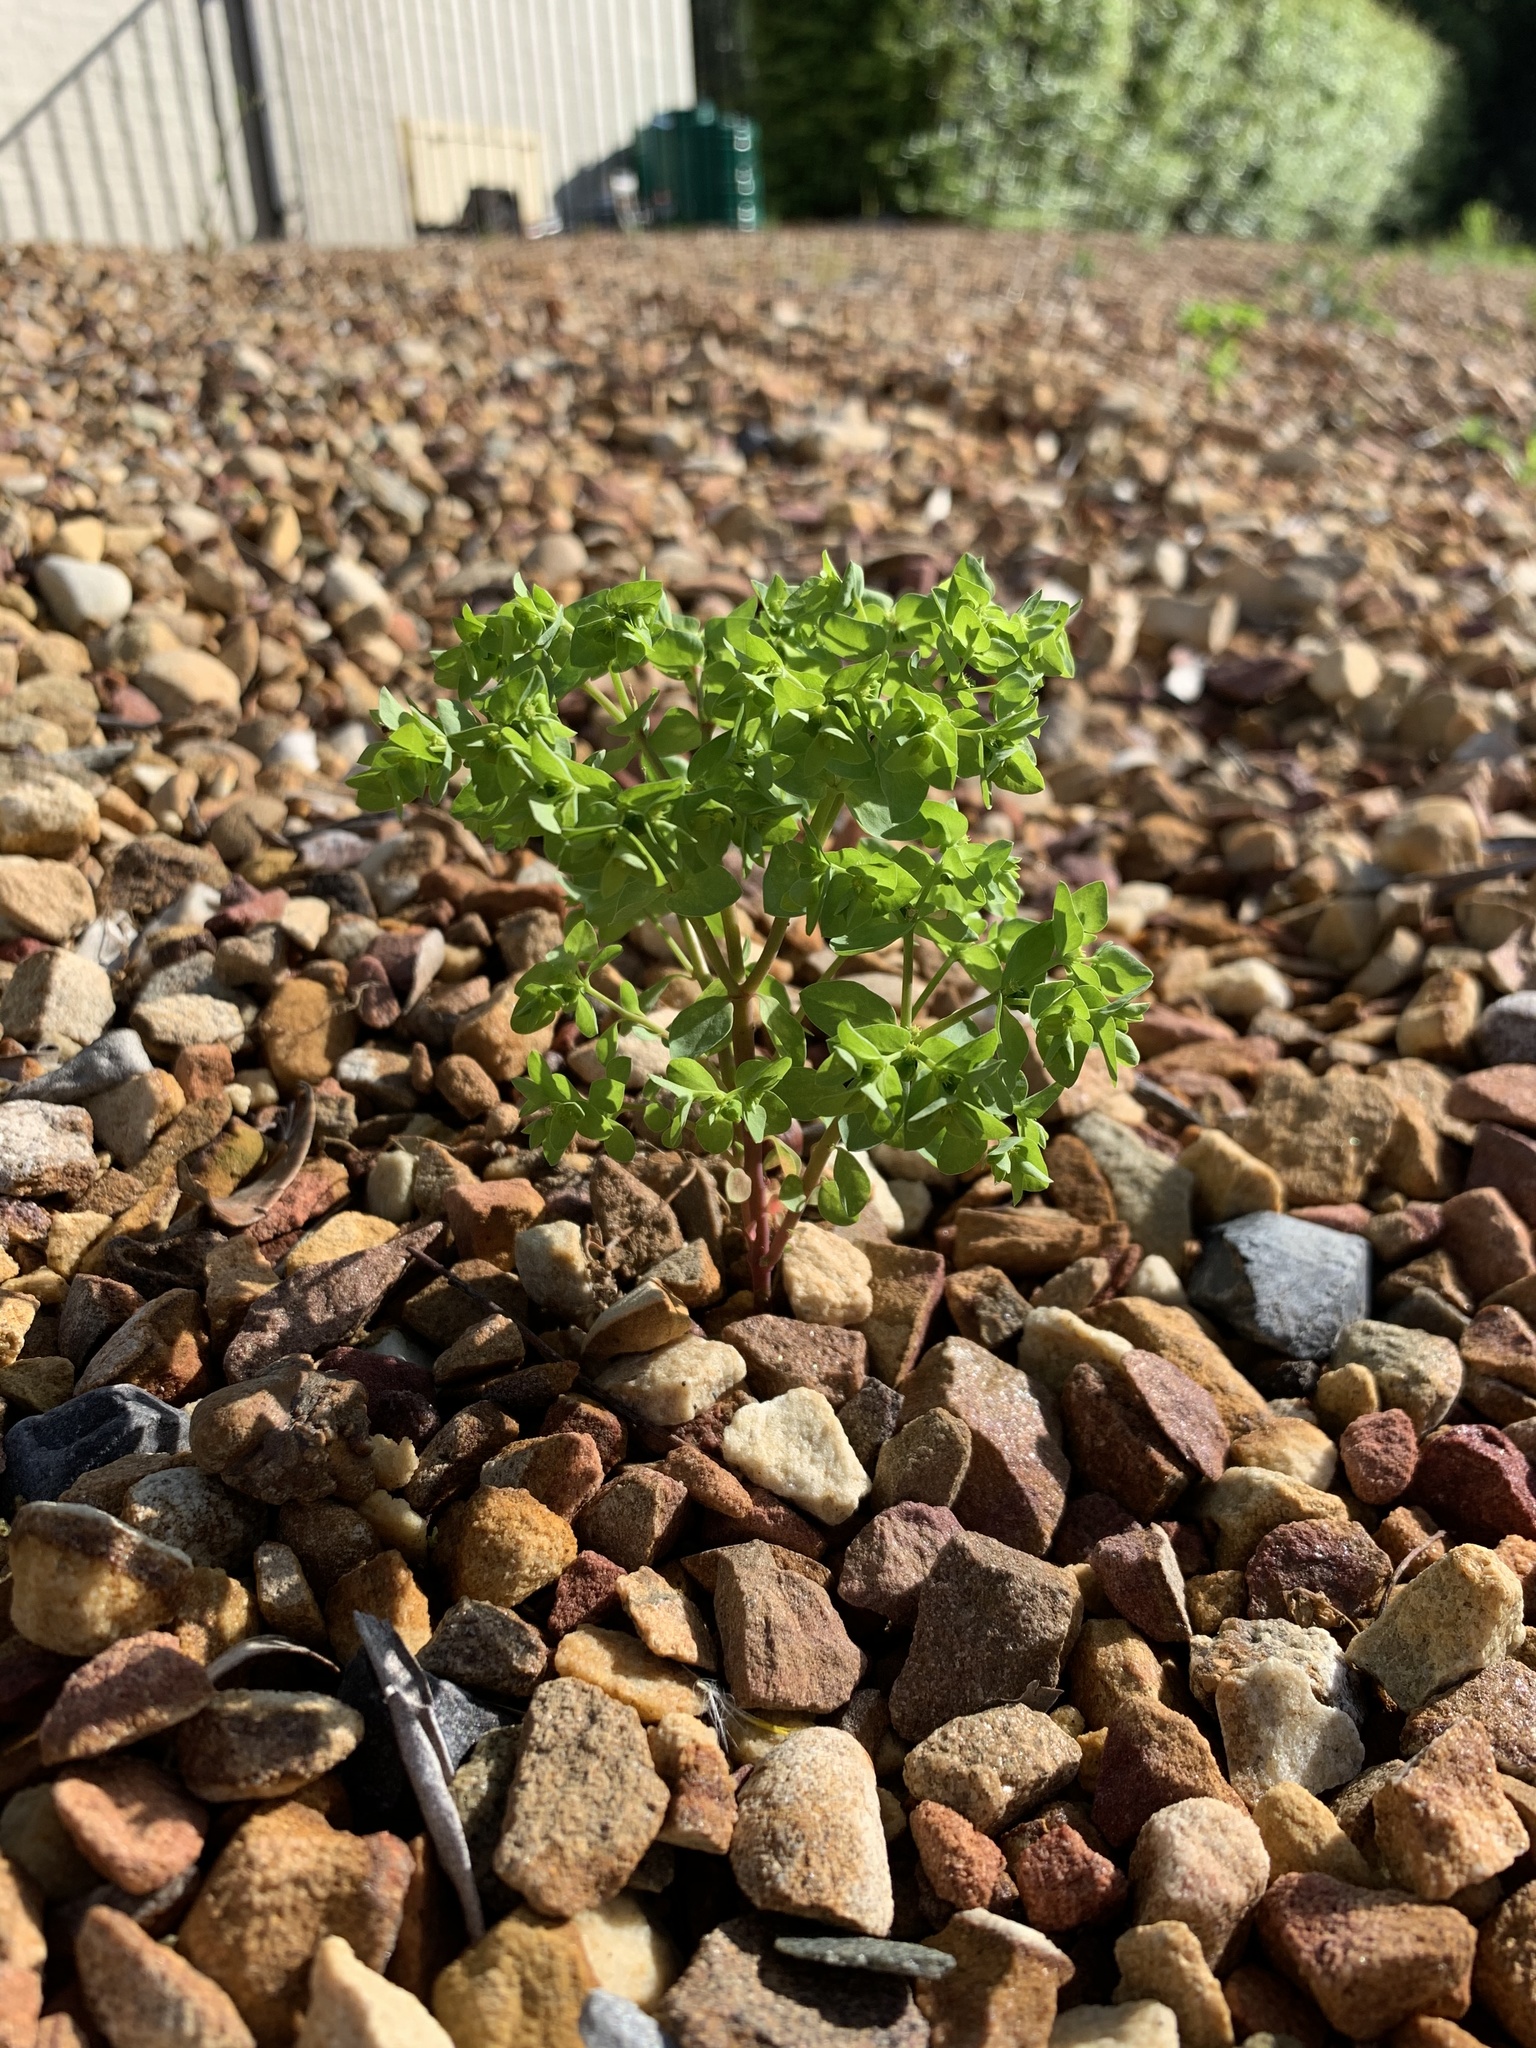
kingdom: Plantae
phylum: Tracheophyta
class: Magnoliopsida
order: Malpighiales
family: Euphorbiaceae
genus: Euphorbia
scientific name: Euphorbia peplus
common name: Petty spurge
